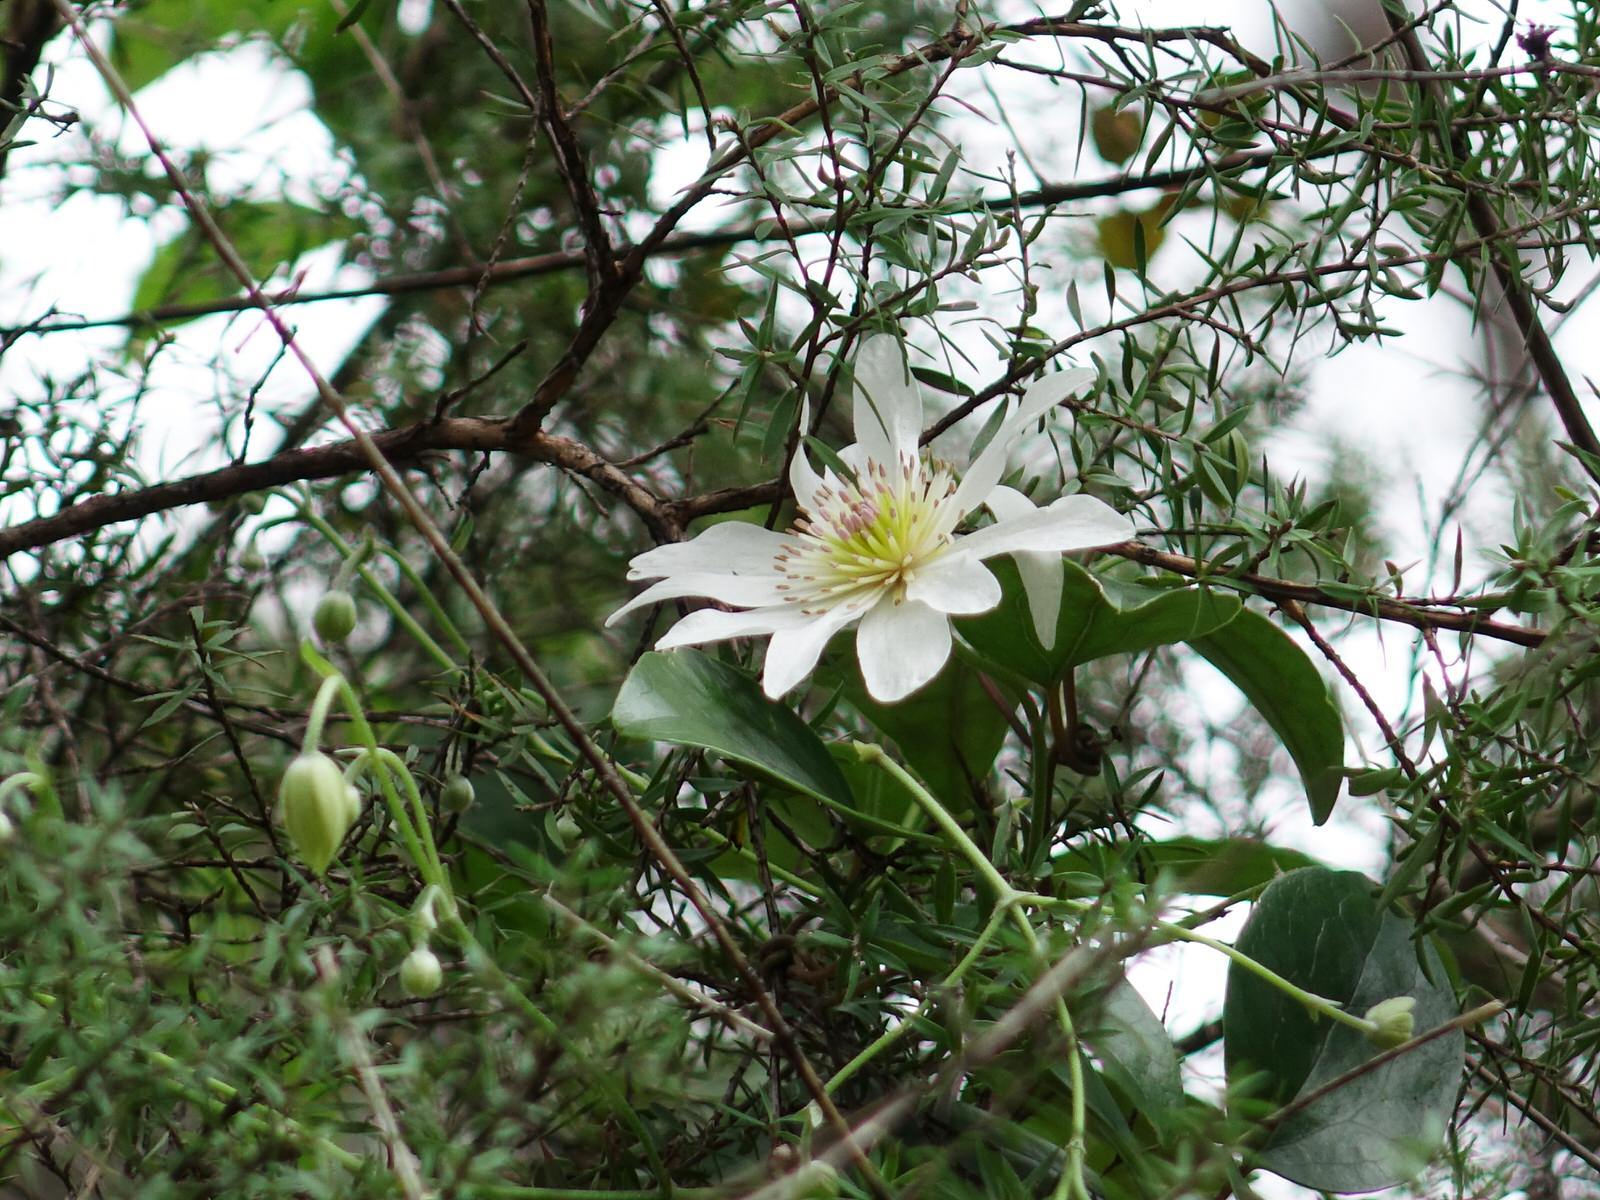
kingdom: Plantae
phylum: Tracheophyta
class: Magnoliopsida
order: Ranunculales
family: Ranunculaceae
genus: Clematis
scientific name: Clematis paniculata
